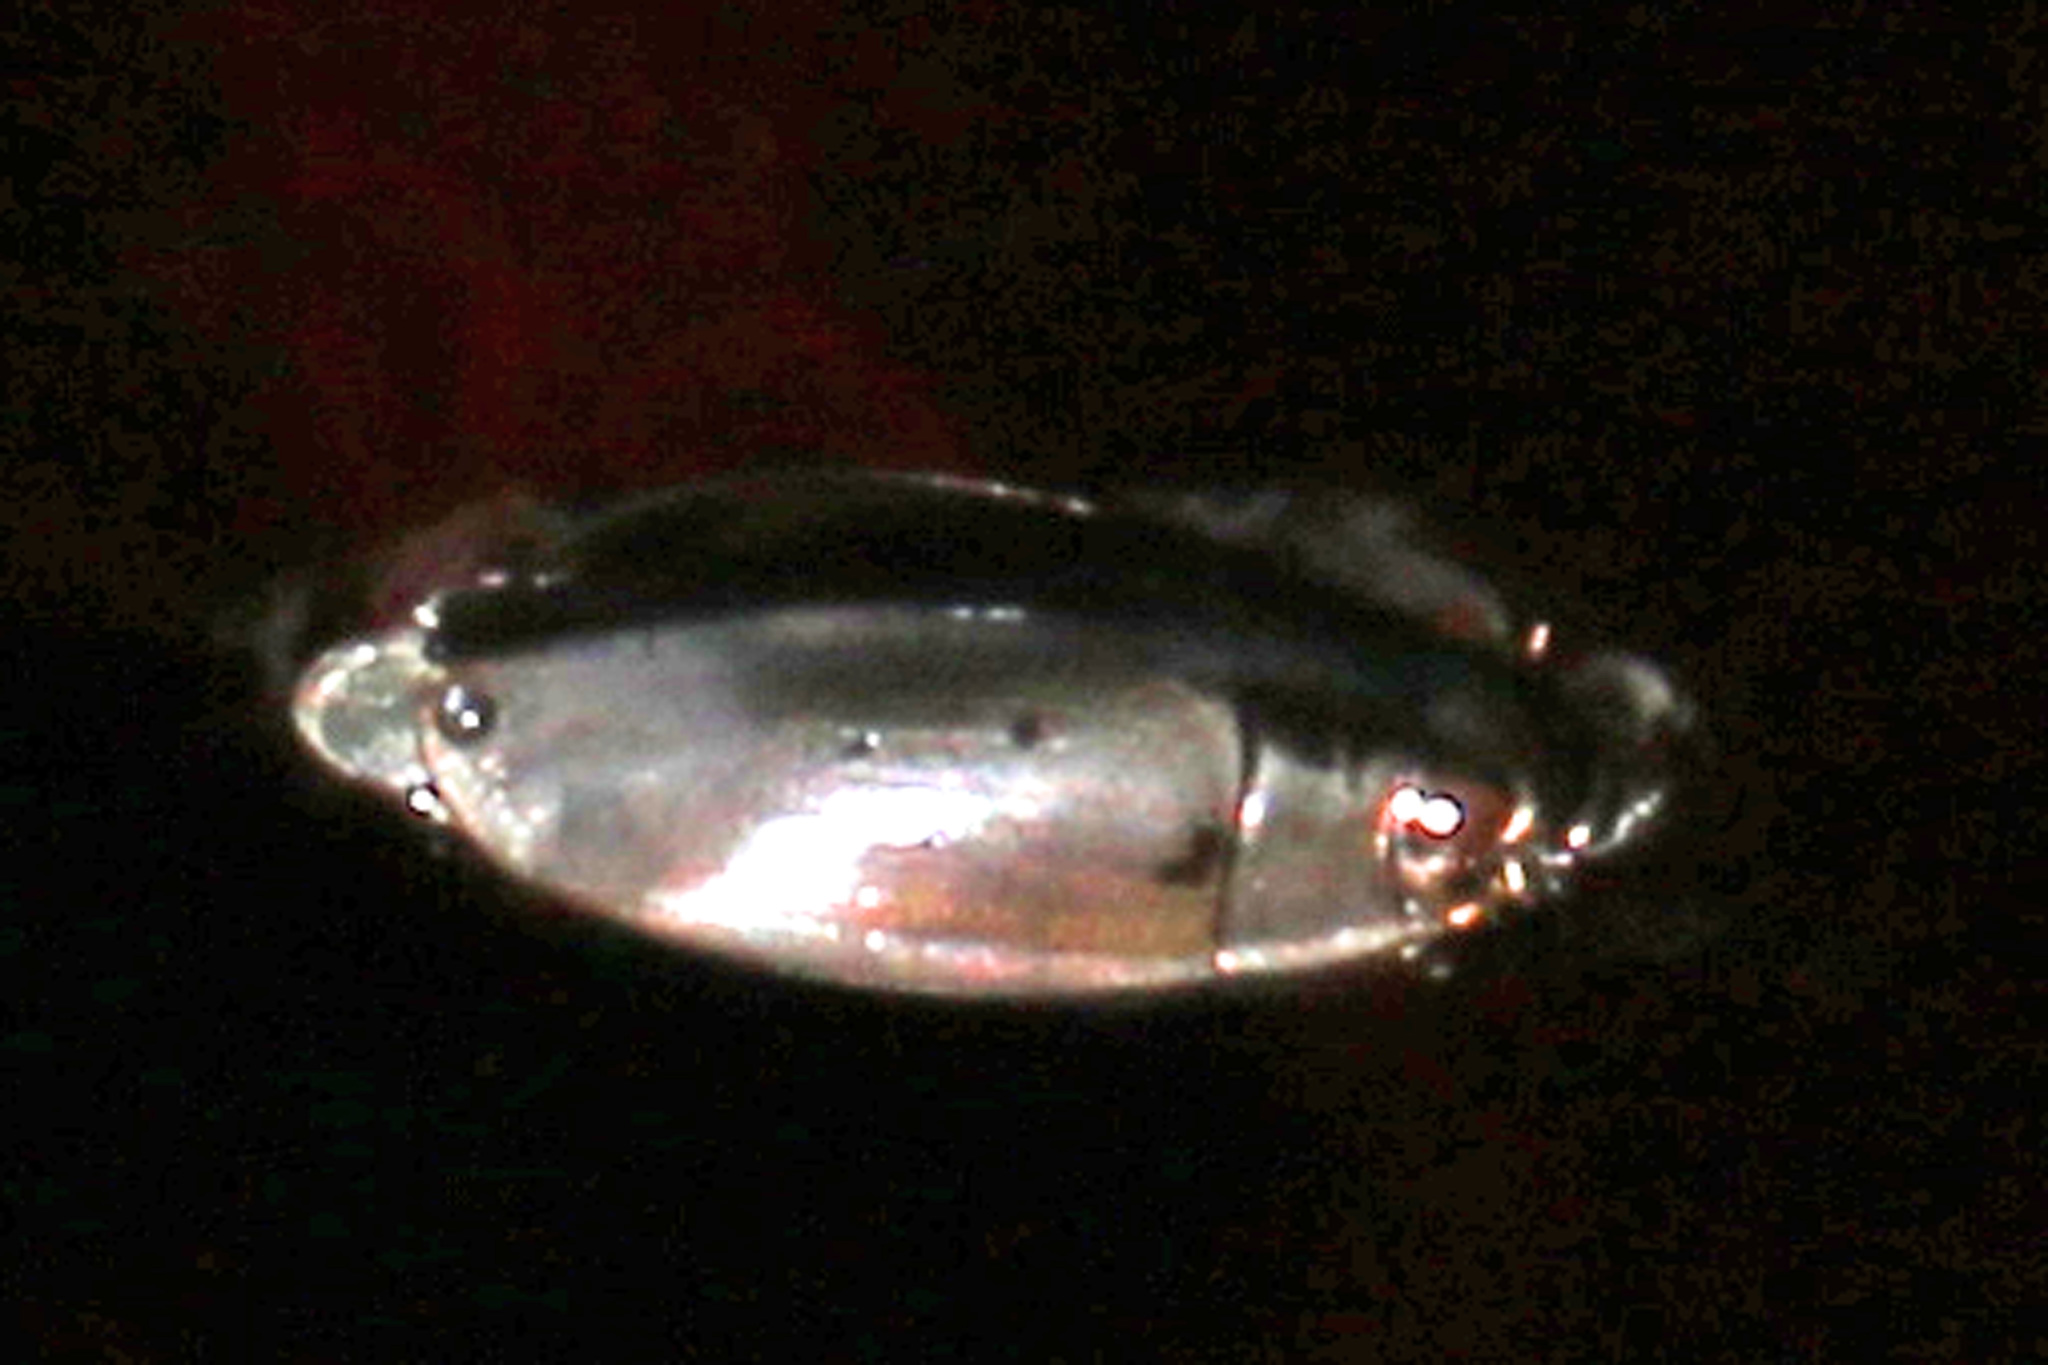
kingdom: Animalia
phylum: Arthropoda
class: Insecta
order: Coleoptera
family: Gyrinidae
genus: Dineutus
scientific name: Dineutus
